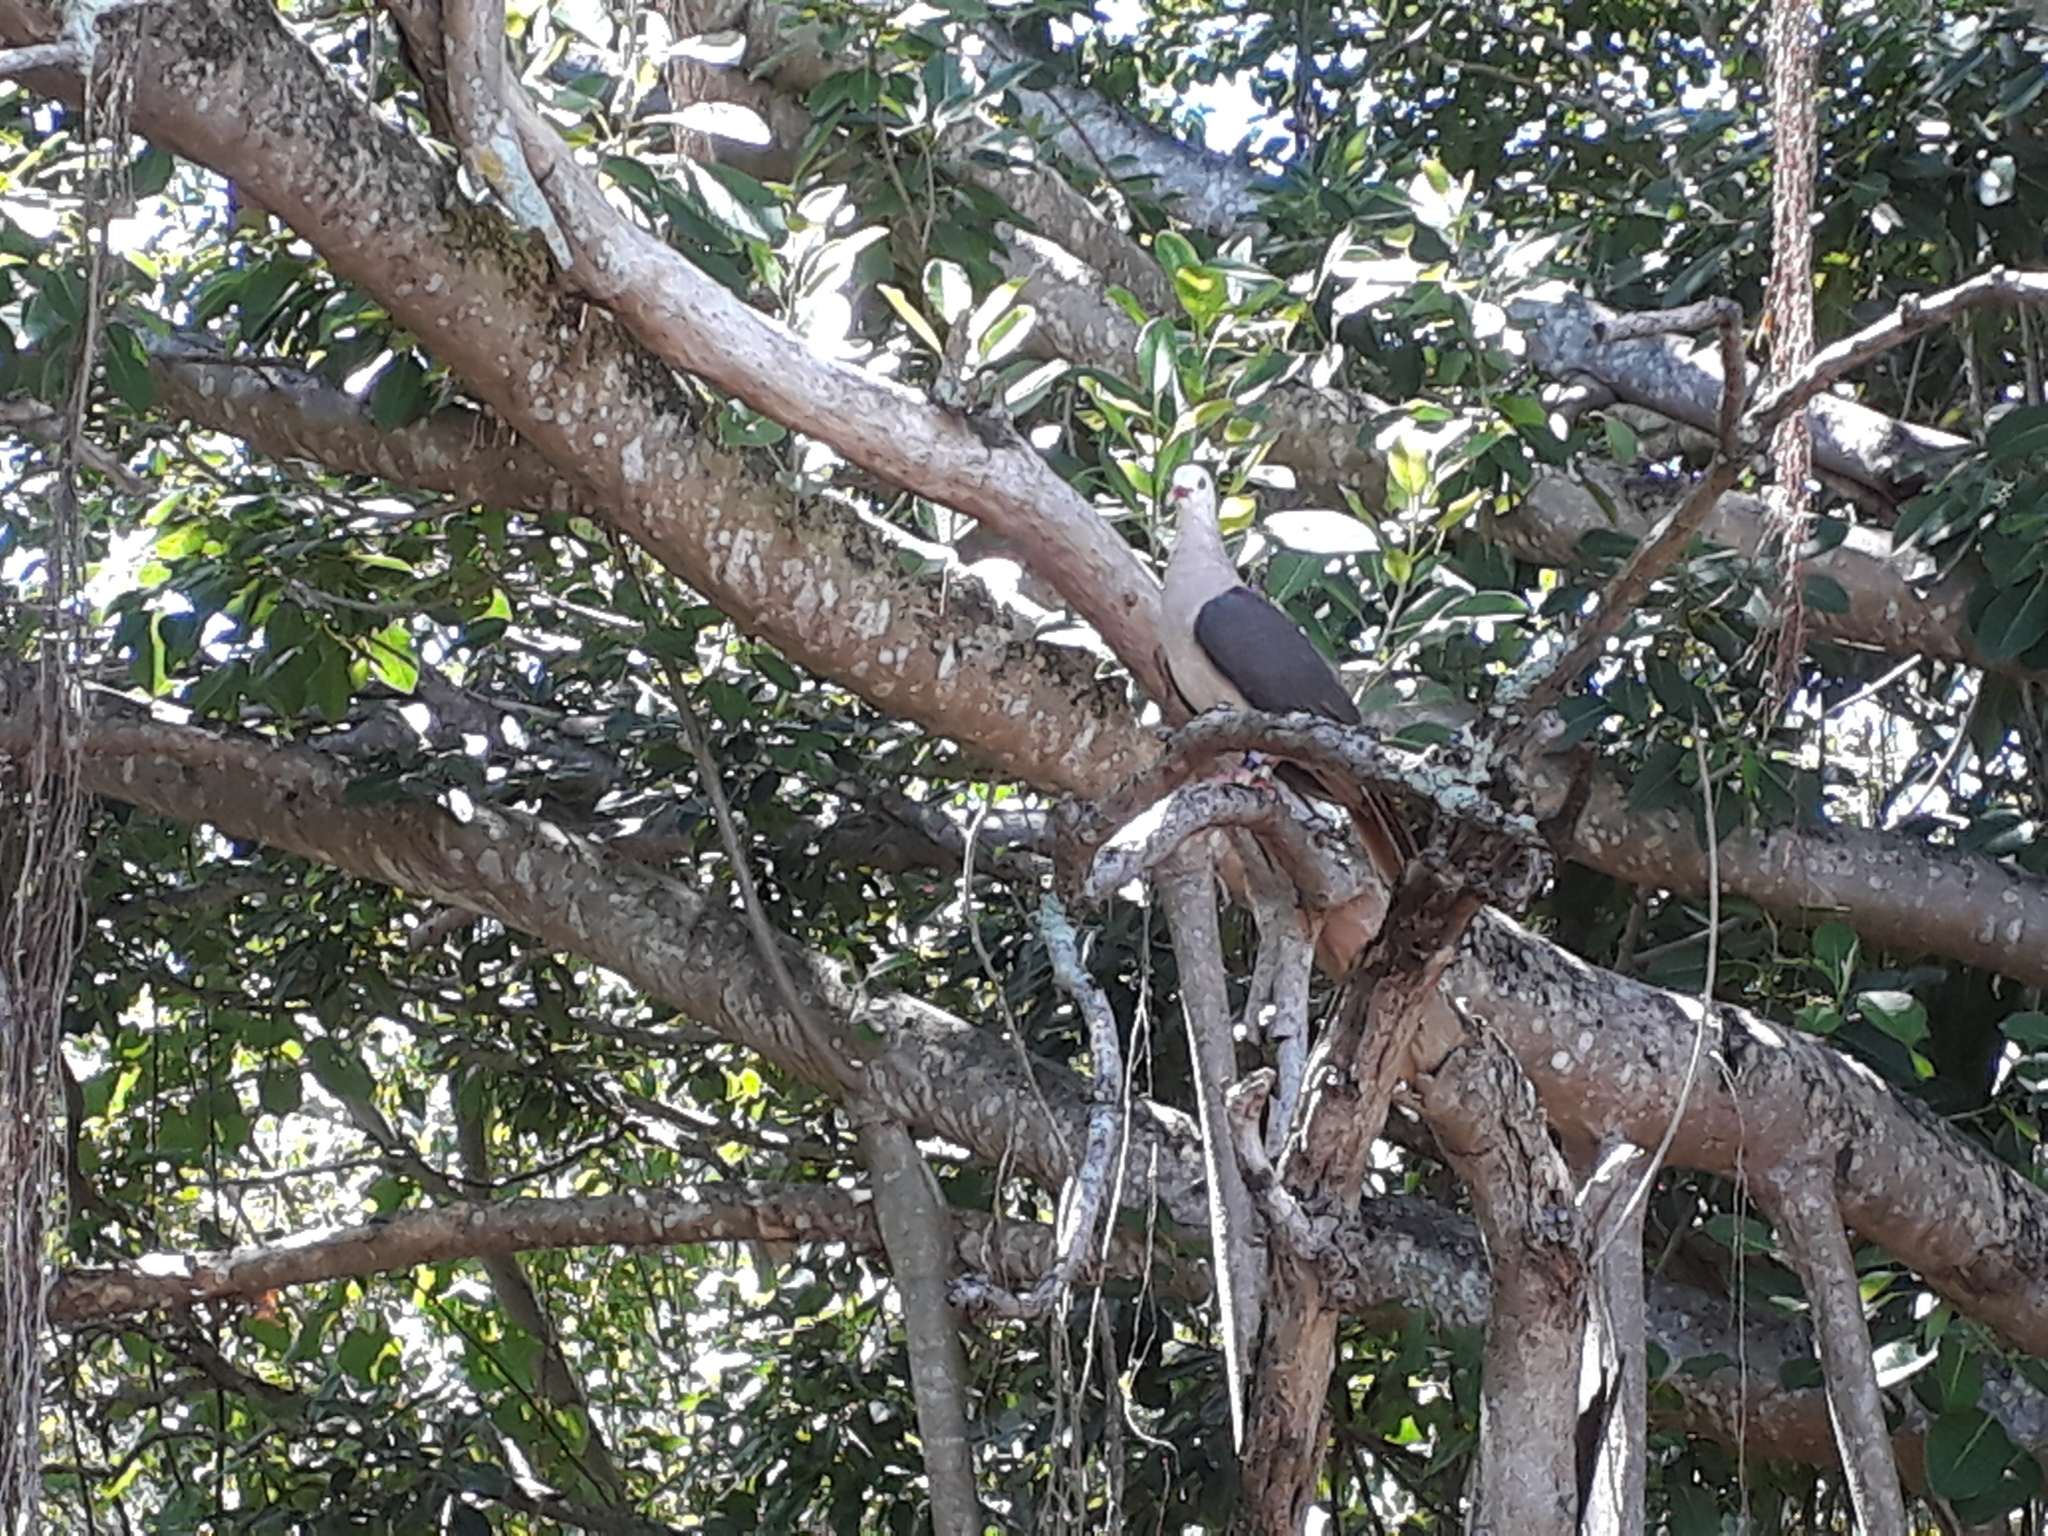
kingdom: Animalia
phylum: Chordata
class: Aves
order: Columbiformes
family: Columbidae
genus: Nesoenas
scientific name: Nesoenas mayeri
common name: Pink pigeon
